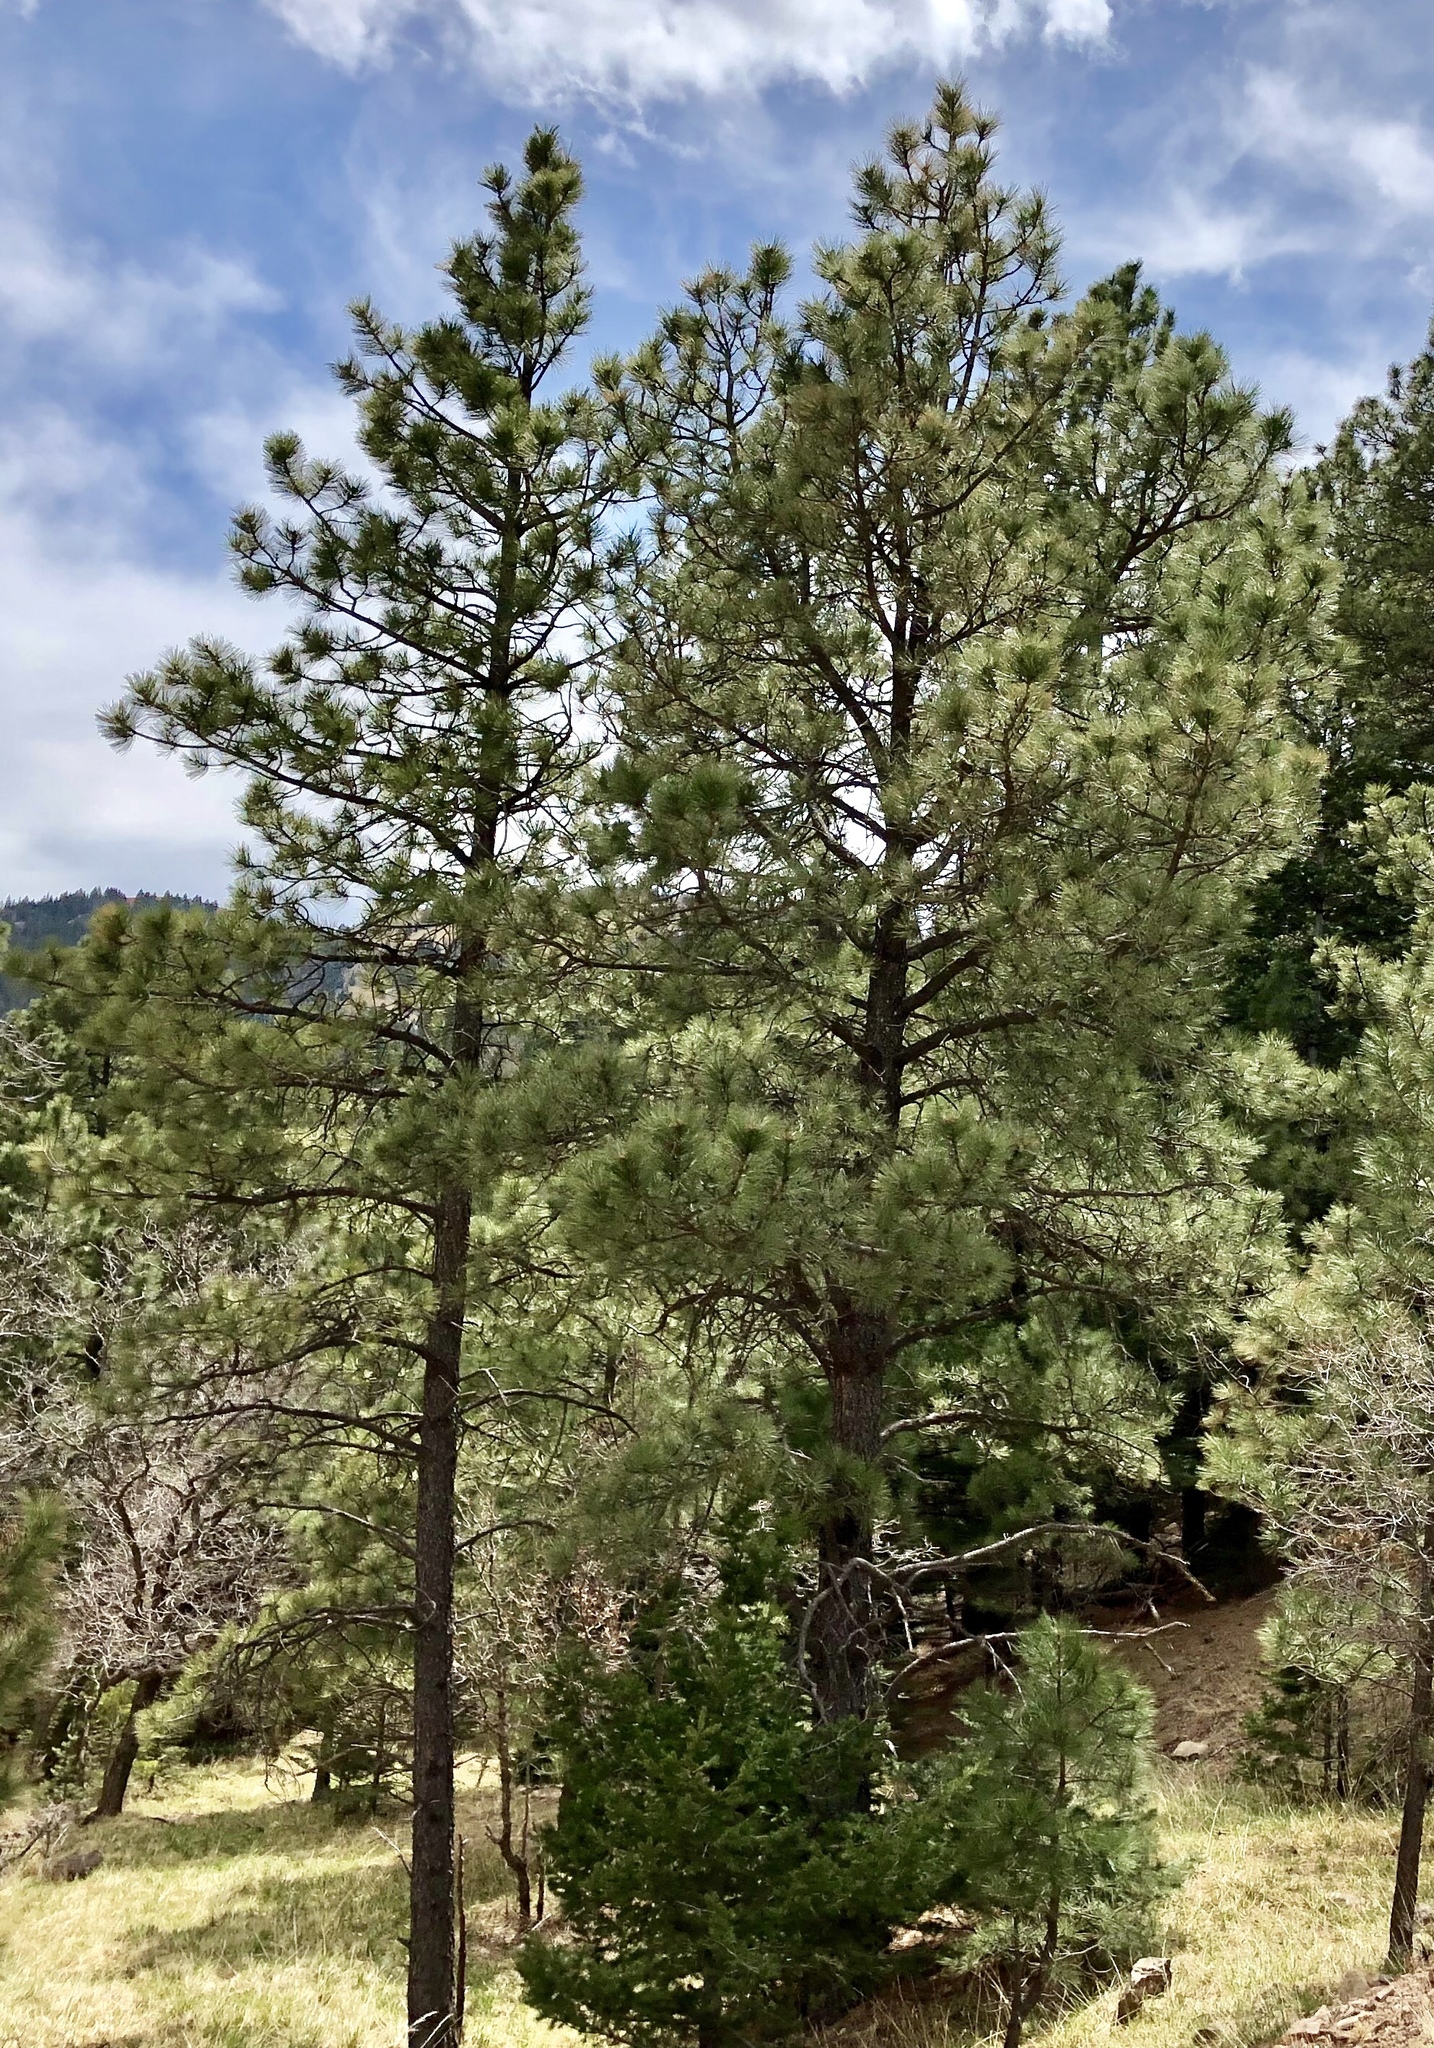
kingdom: Plantae
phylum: Tracheophyta
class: Pinopsida
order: Pinales
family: Pinaceae
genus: Pinus
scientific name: Pinus ponderosa
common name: Western yellow-pine
